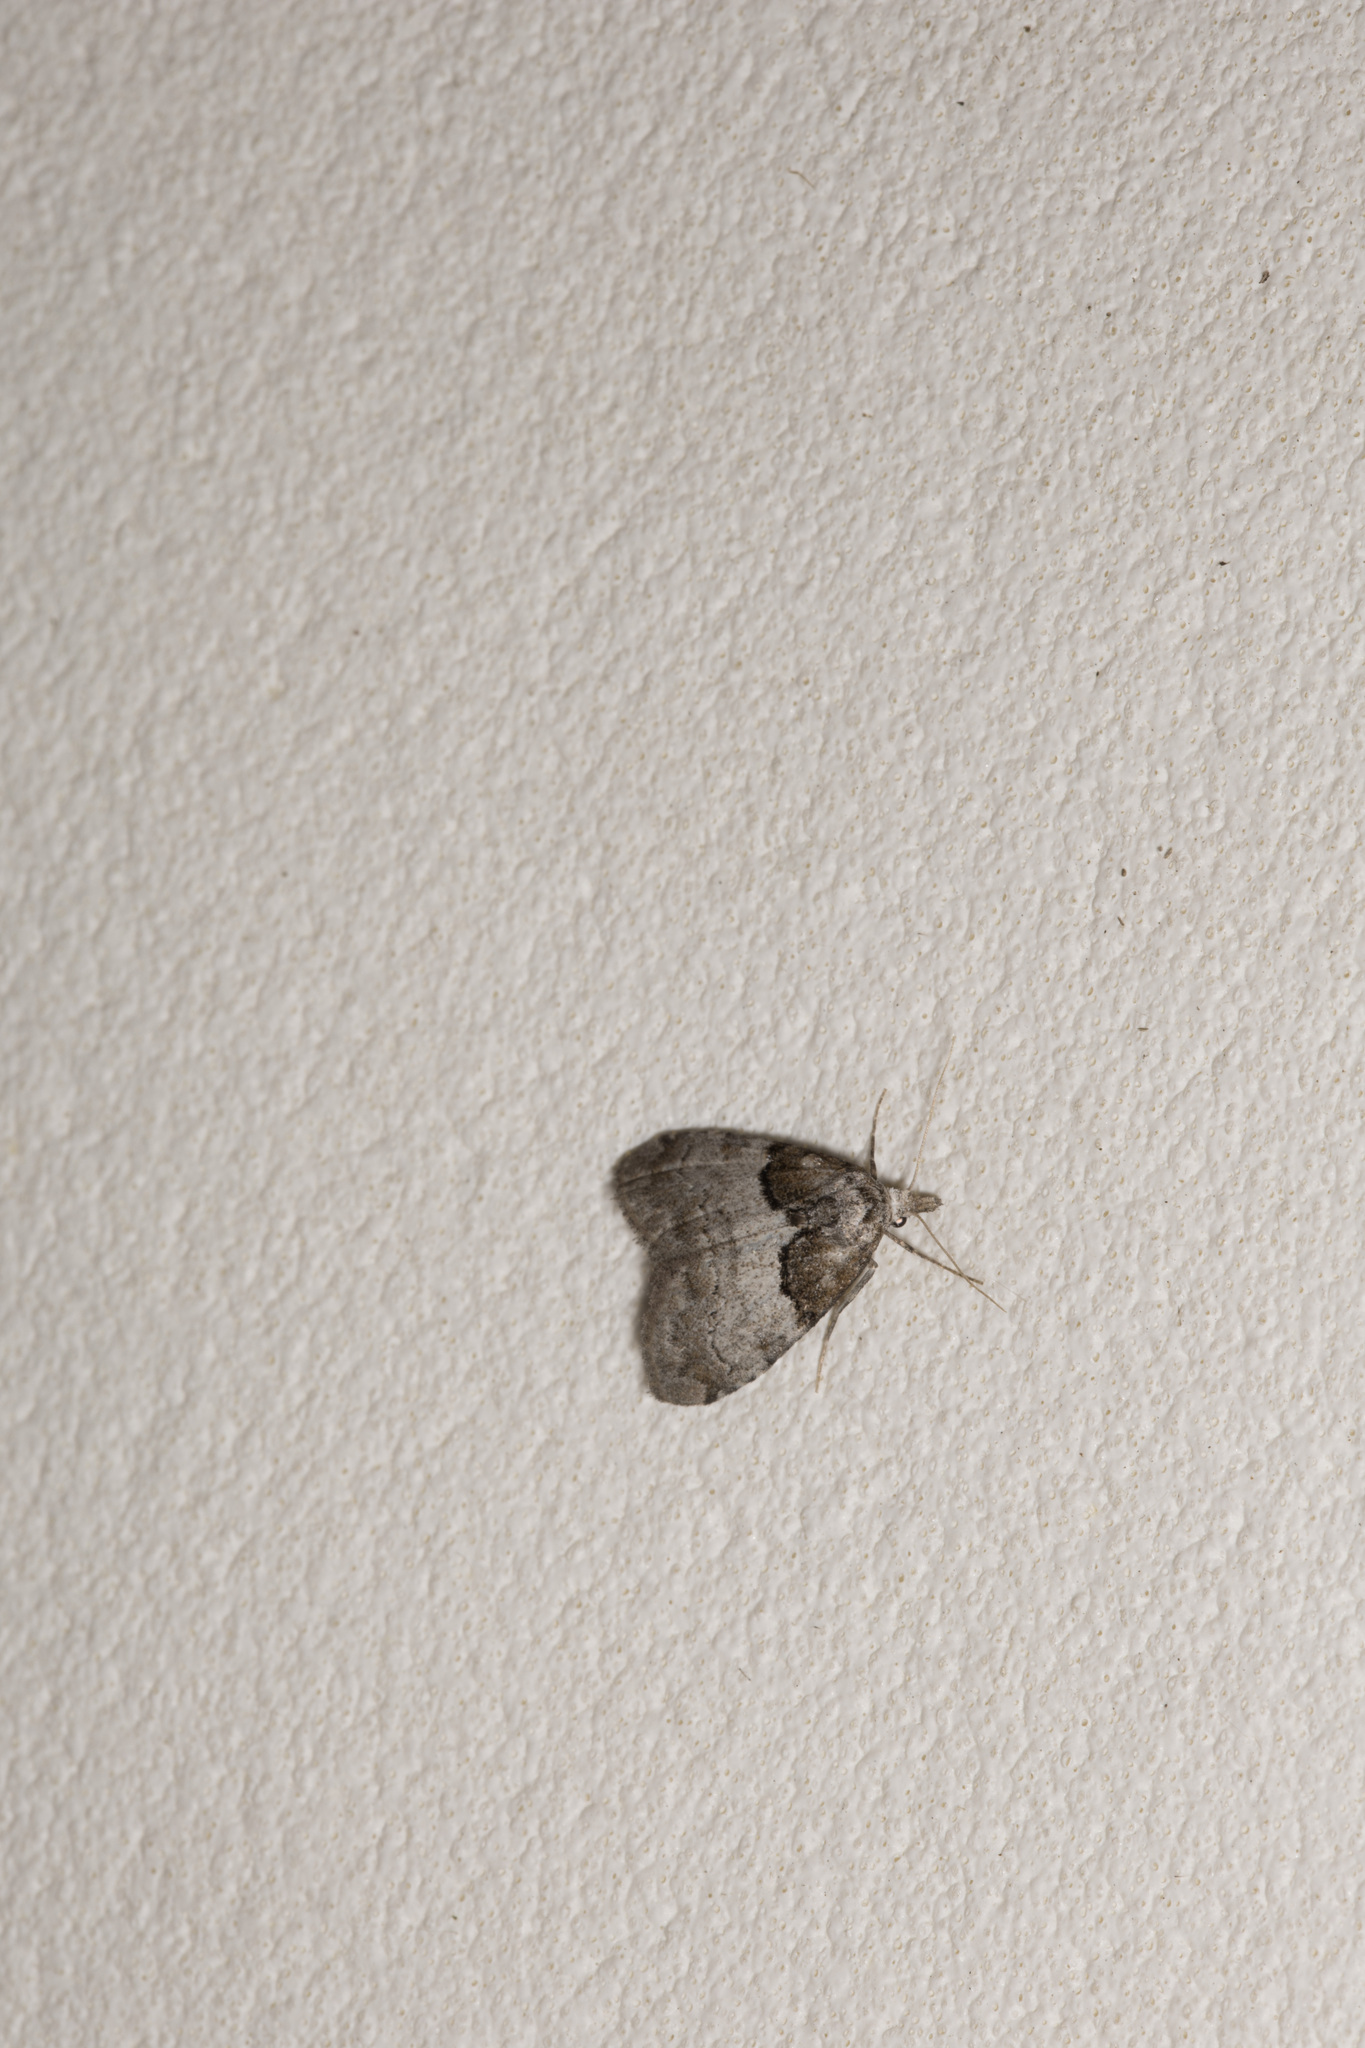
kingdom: Animalia
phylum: Arthropoda
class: Insecta
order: Lepidoptera
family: Nolidae
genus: Nola
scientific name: Nola cucullatella
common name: Short-cloaked moth
